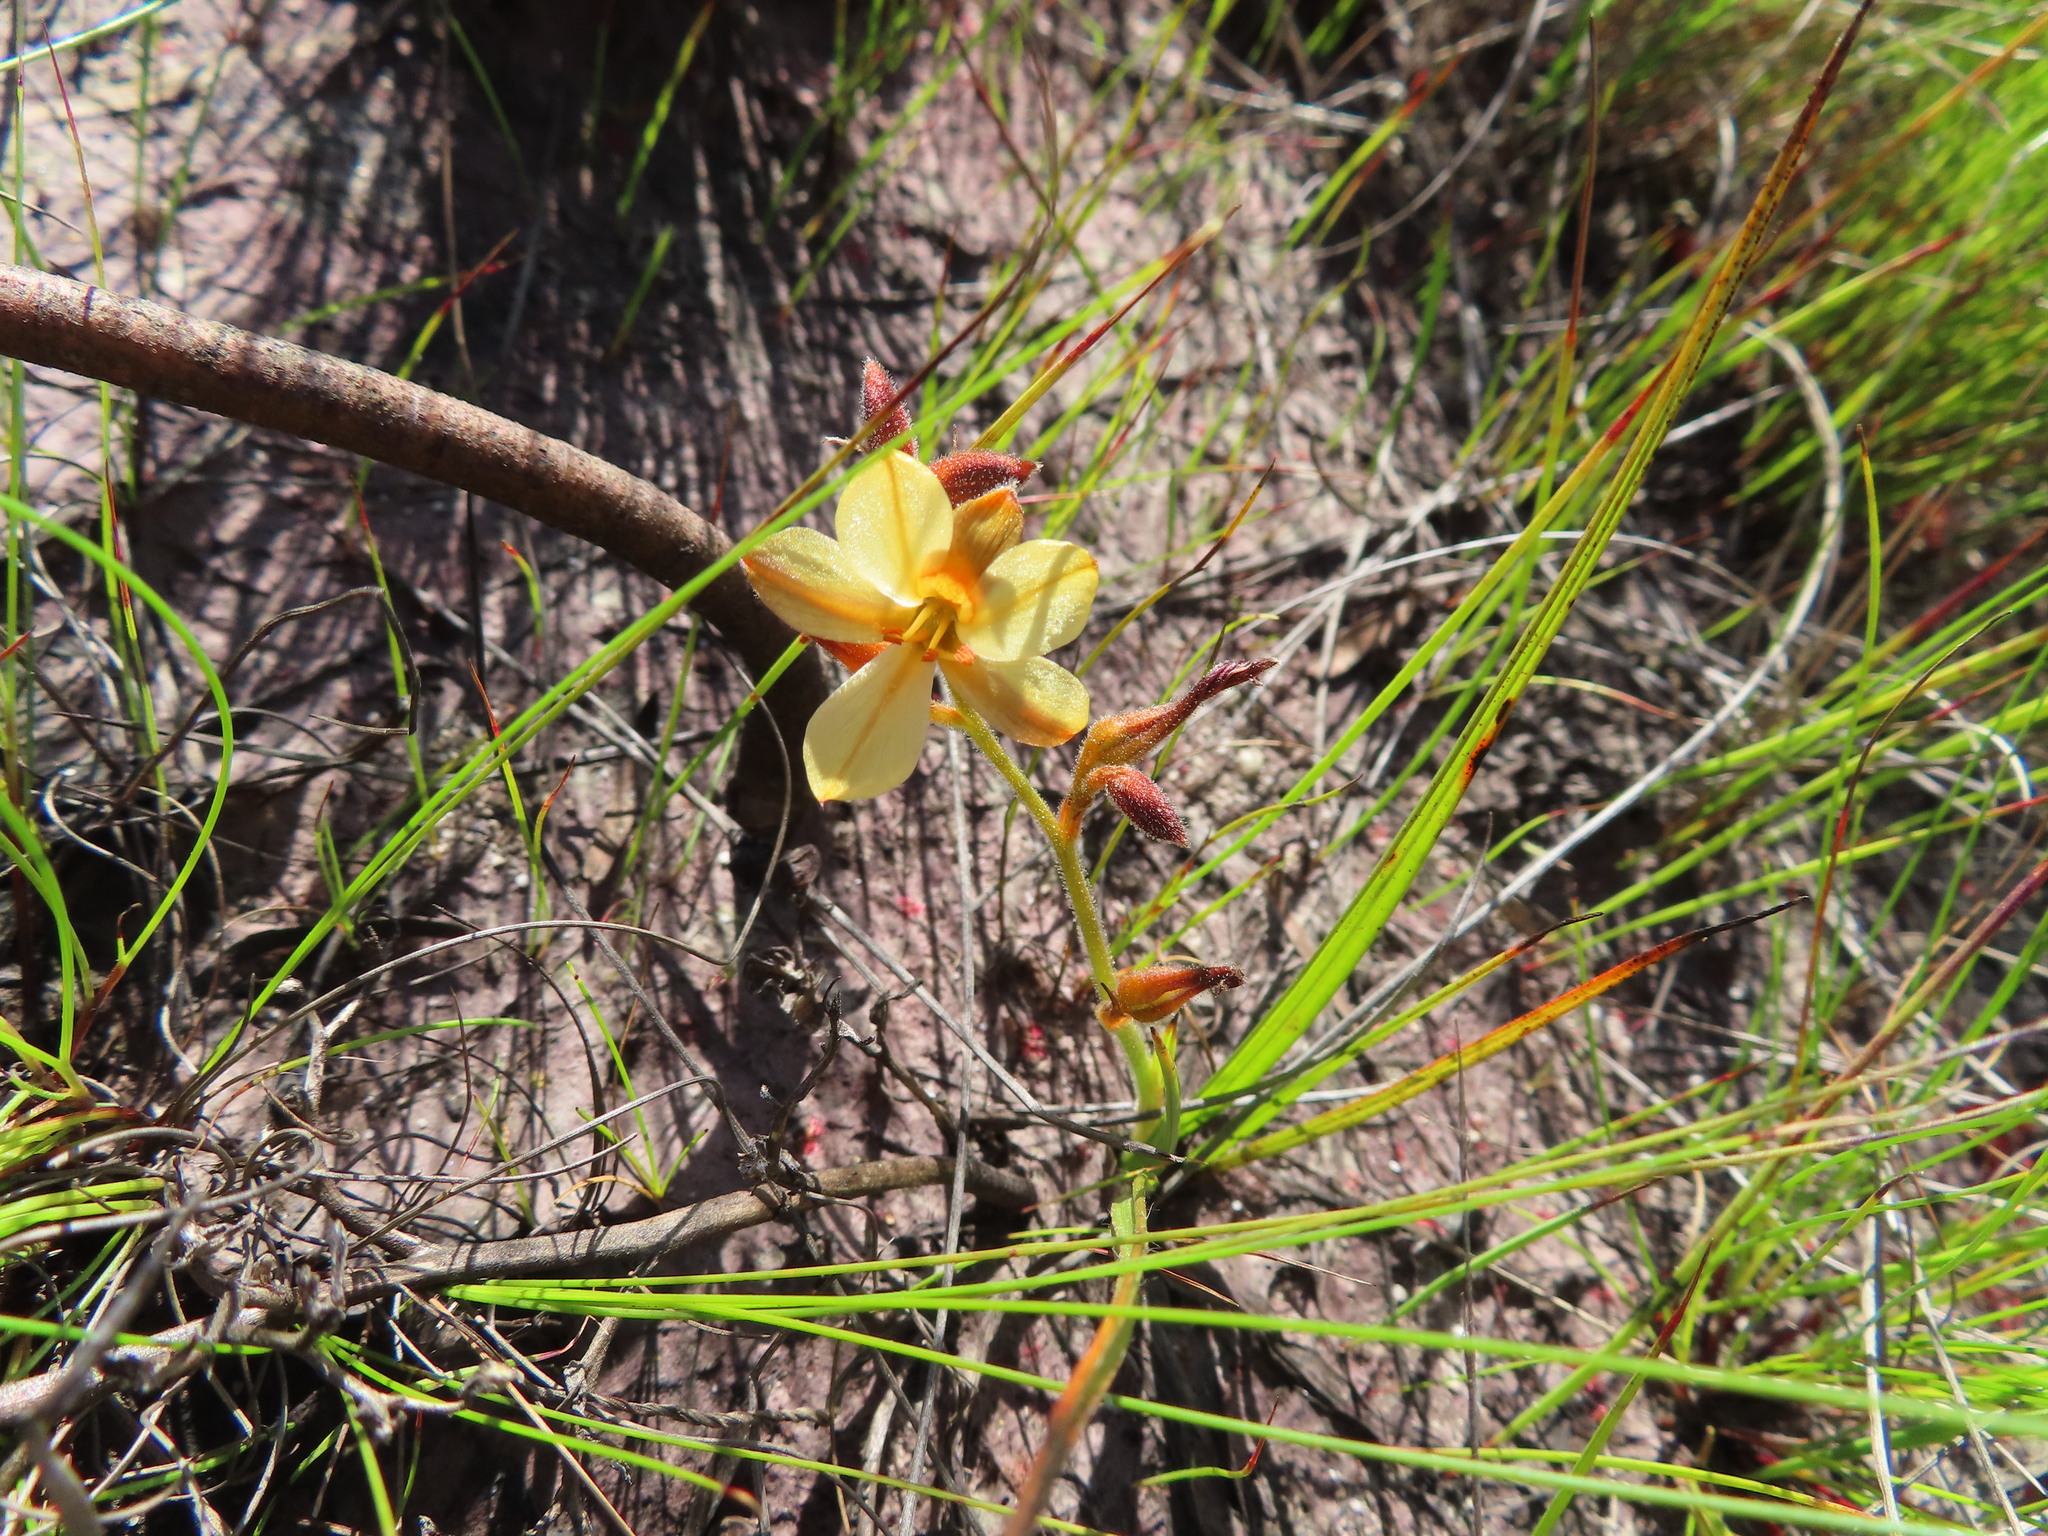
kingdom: Plantae
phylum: Tracheophyta
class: Liliopsida
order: Commelinales
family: Haemodoraceae
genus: Wachendorfia
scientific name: Wachendorfia paniculata
